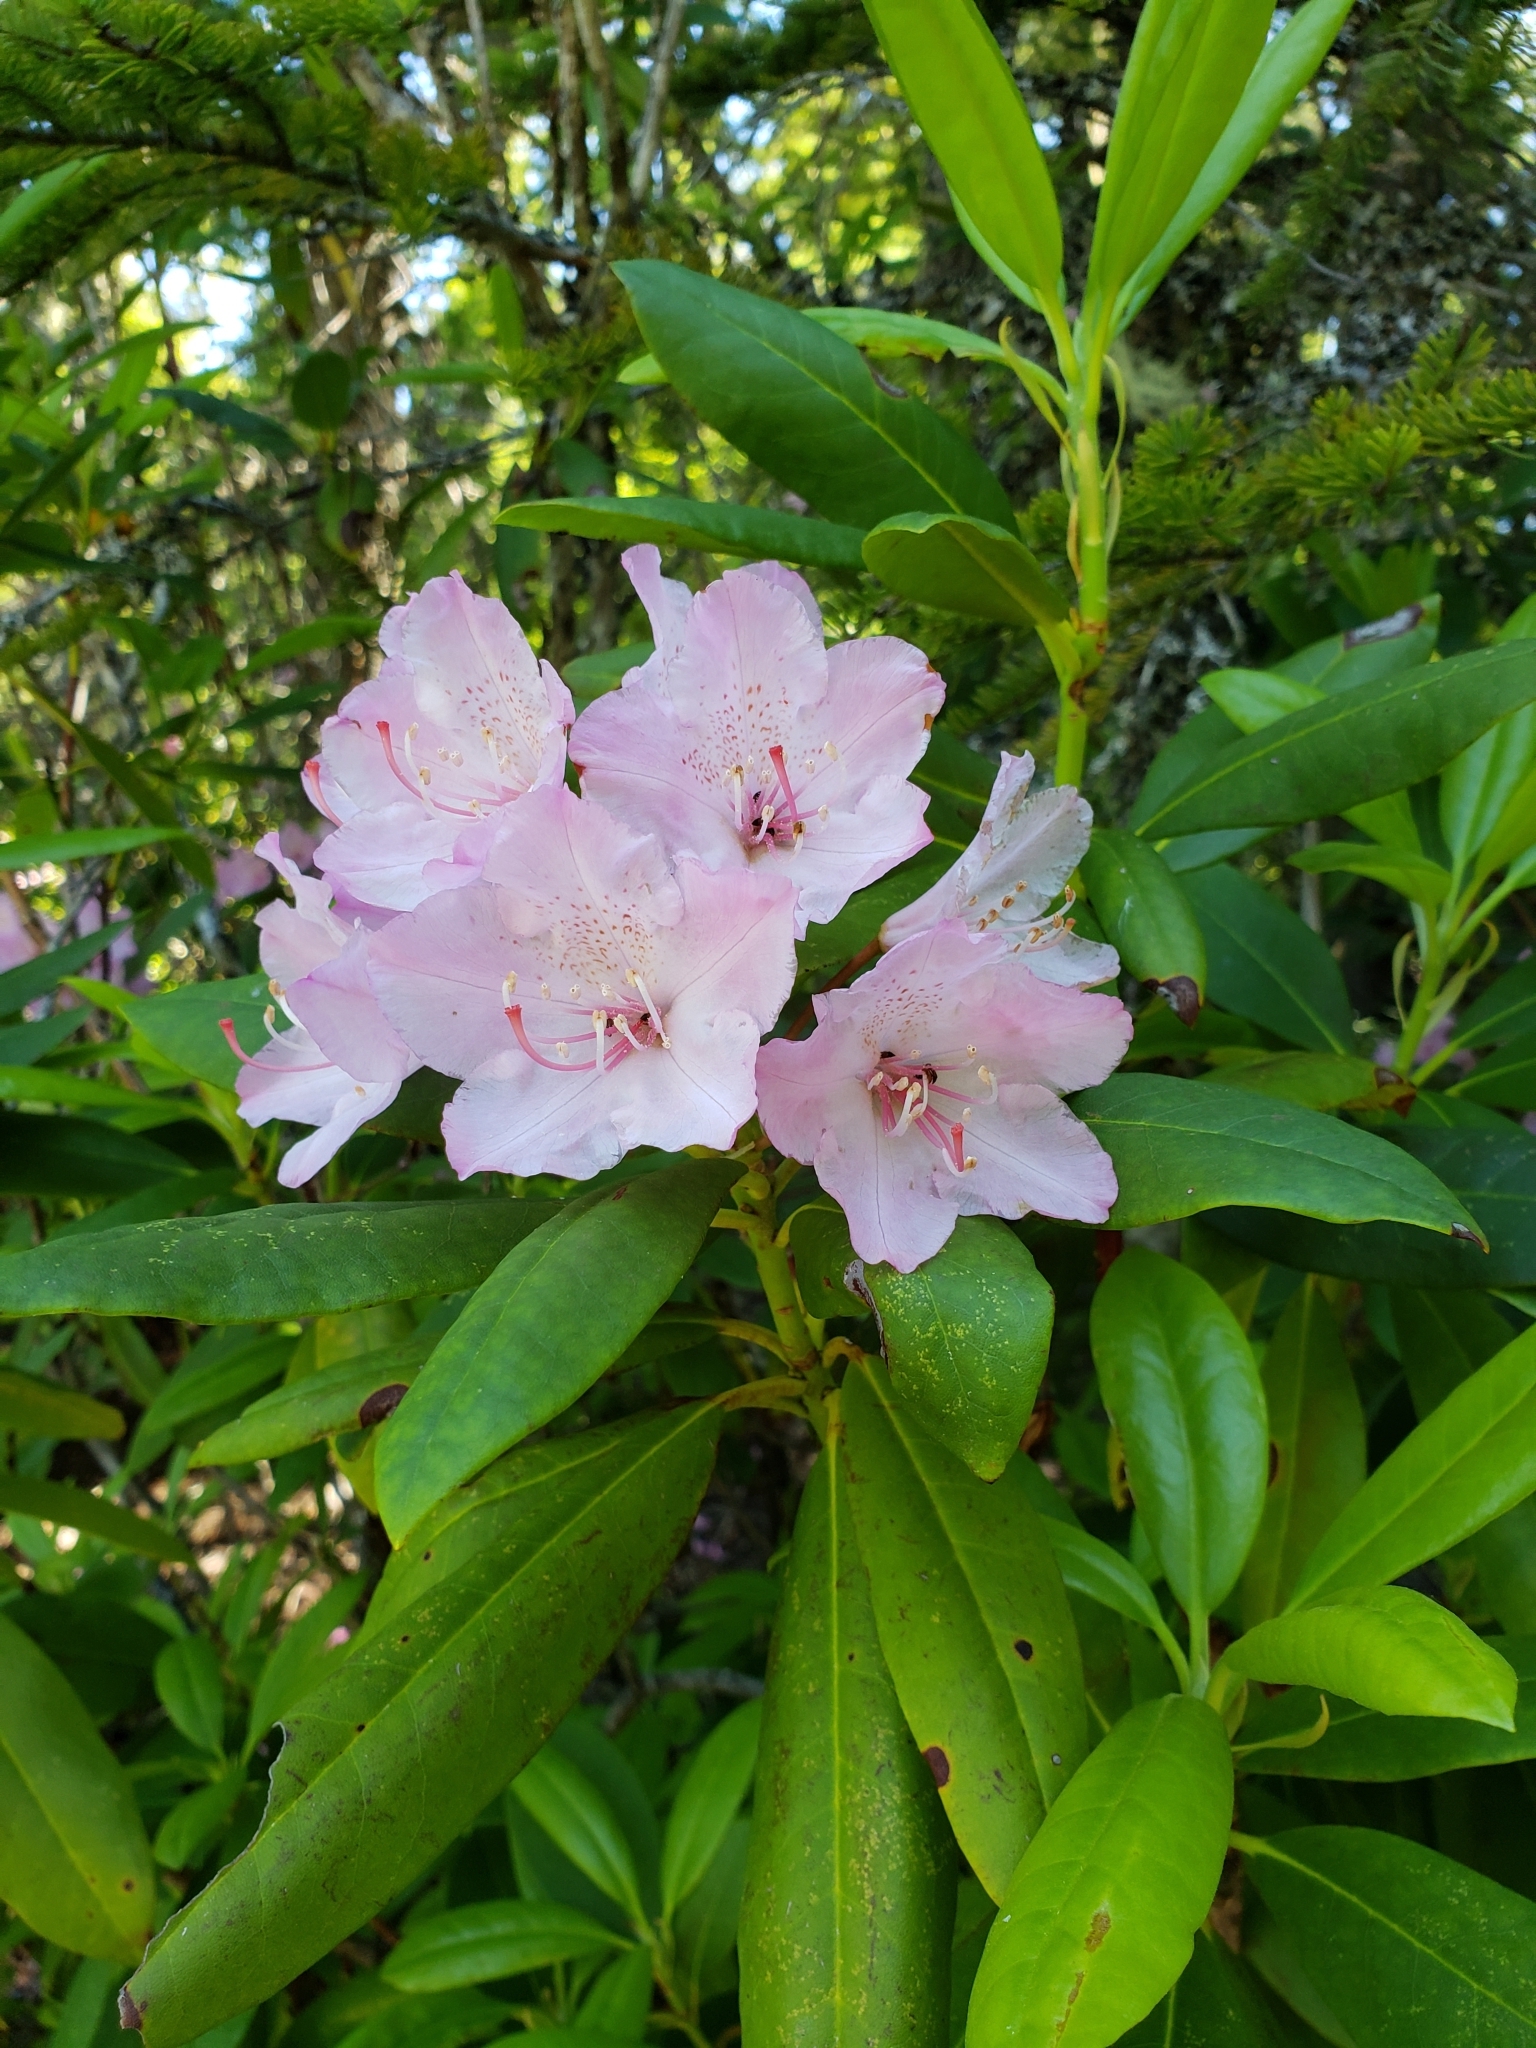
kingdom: Plantae
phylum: Tracheophyta
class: Magnoliopsida
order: Ericales
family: Ericaceae
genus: Rhododendron
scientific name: Rhododendron macrophyllum
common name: California rose bay
